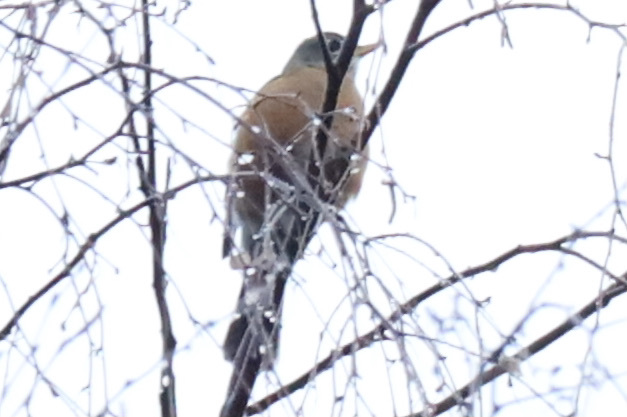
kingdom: Animalia
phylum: Chordata
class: Aves
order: Passeriformes
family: Turdidae
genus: Turdus
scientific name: Turdus migratorius
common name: American robin
